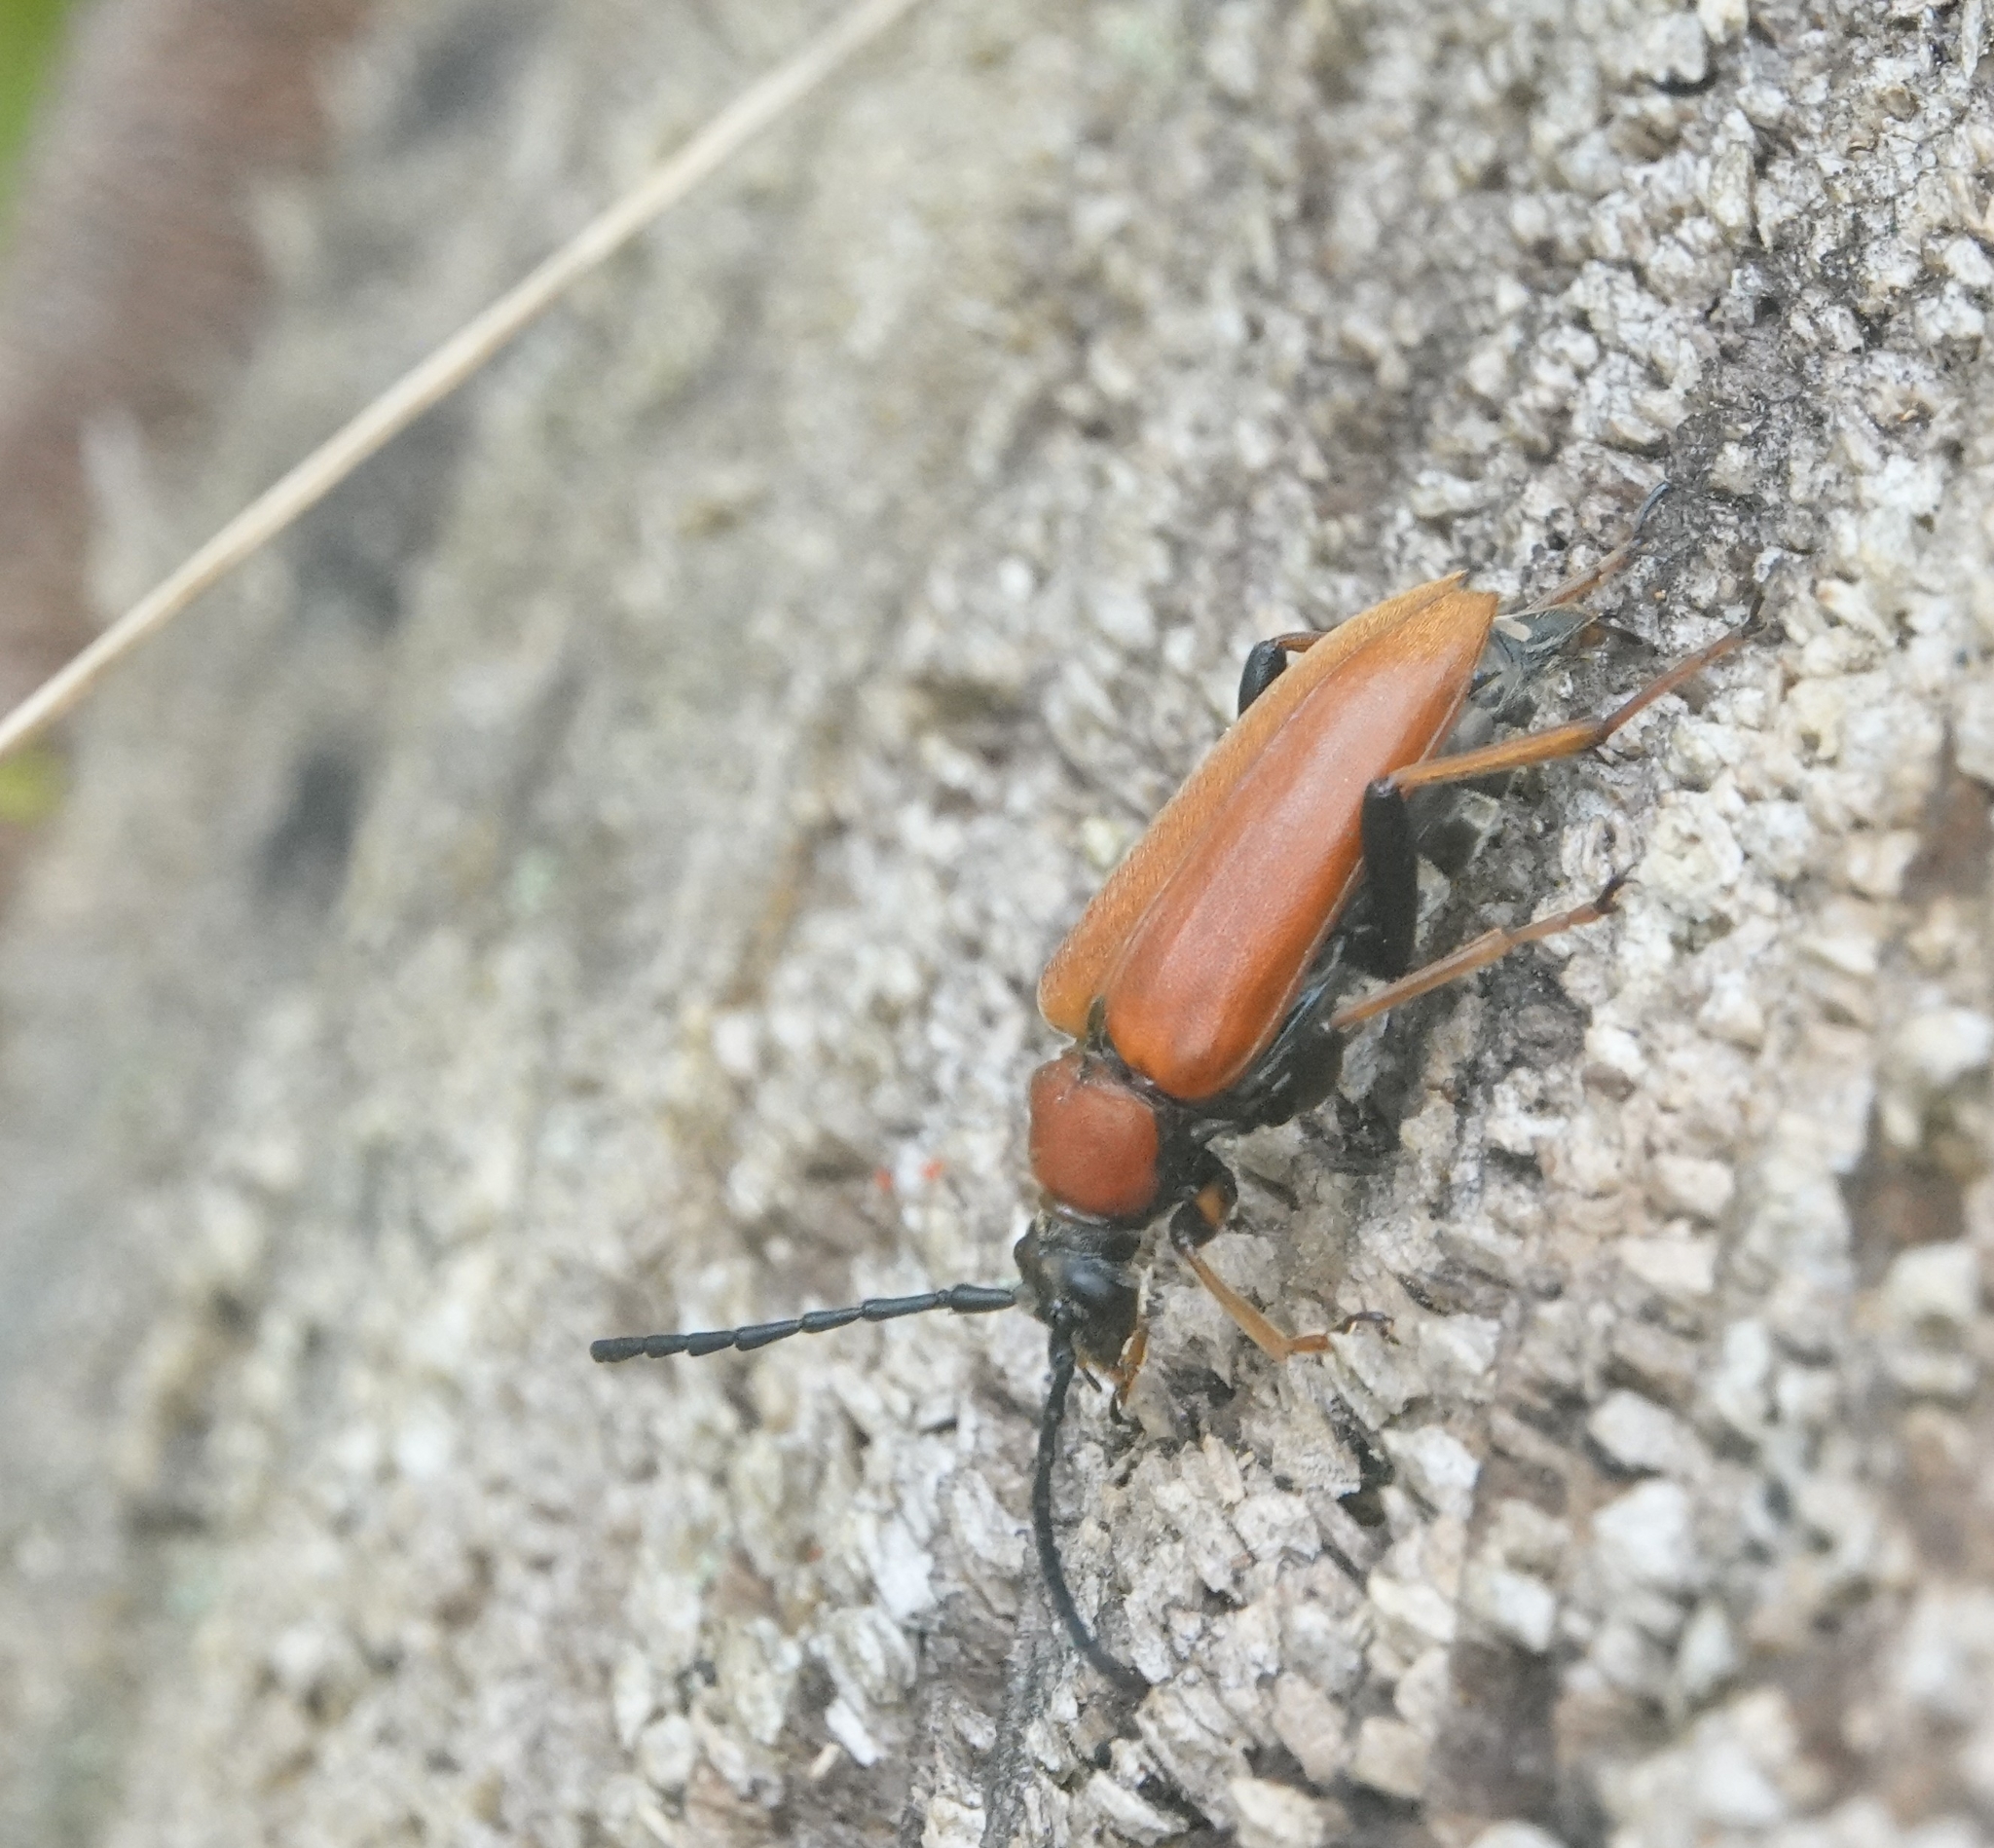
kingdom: Animalia
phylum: Arthropoda
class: Insecta
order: Coleoptera
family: Cerambycidae
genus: Stictoleptura
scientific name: Stictoleptura rubra
